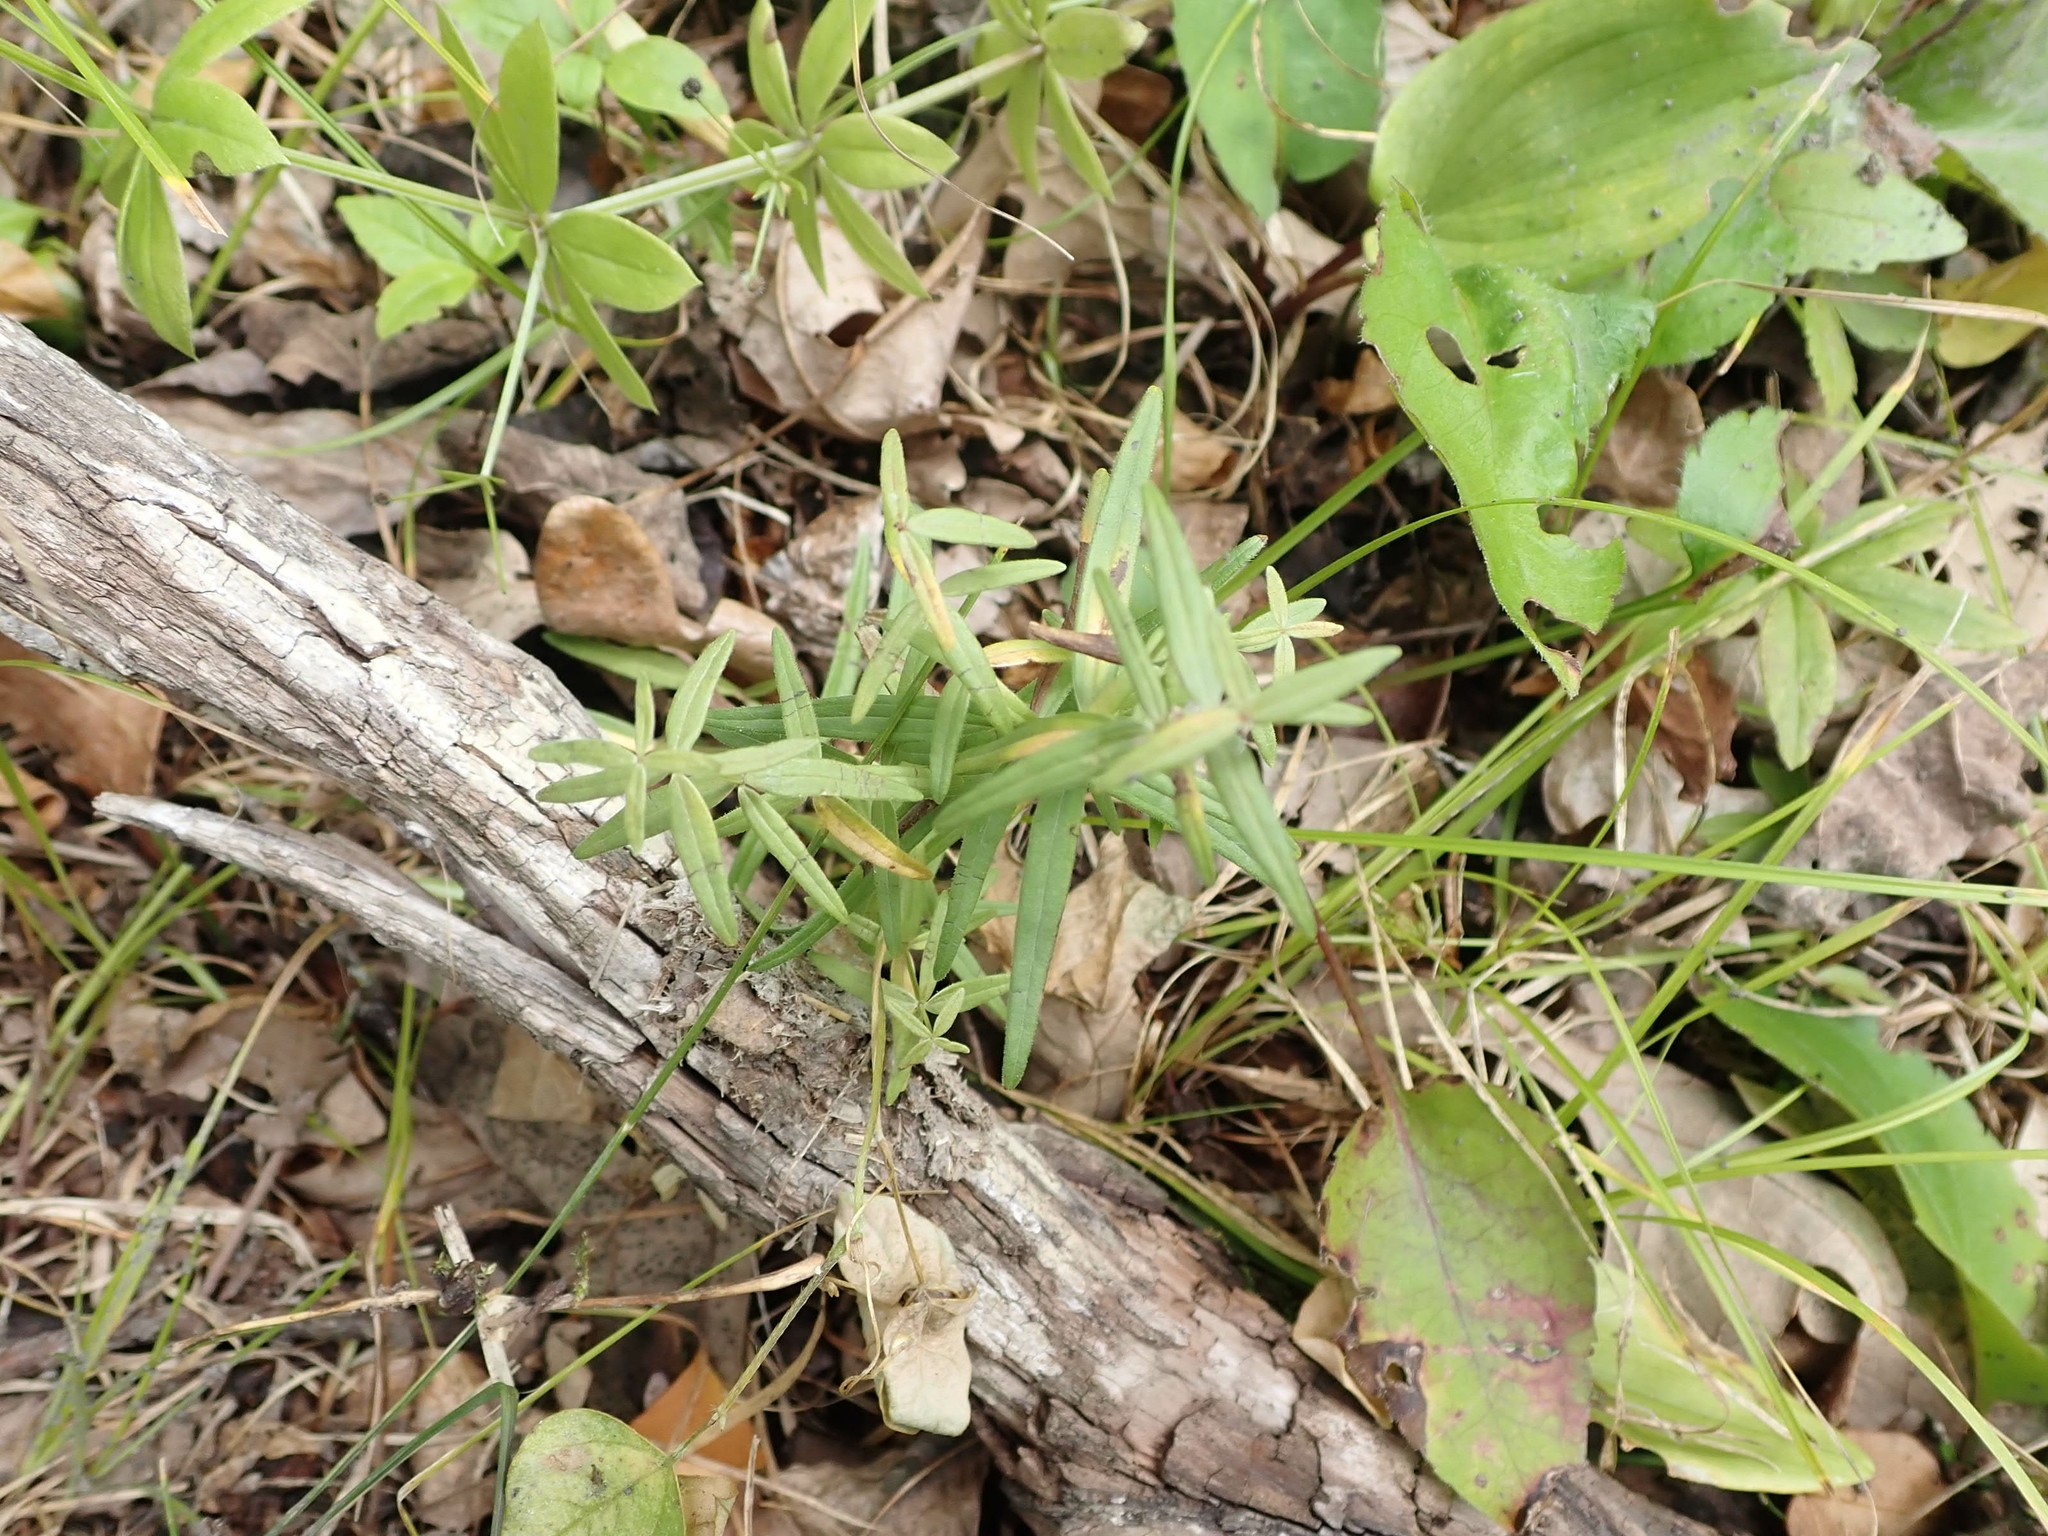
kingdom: Plantae
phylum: Tracheophyta
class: Magnoliopsida
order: Gentianales
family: Rubiaceae
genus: Galium
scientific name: Galium boreale
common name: Northern bedstraw
